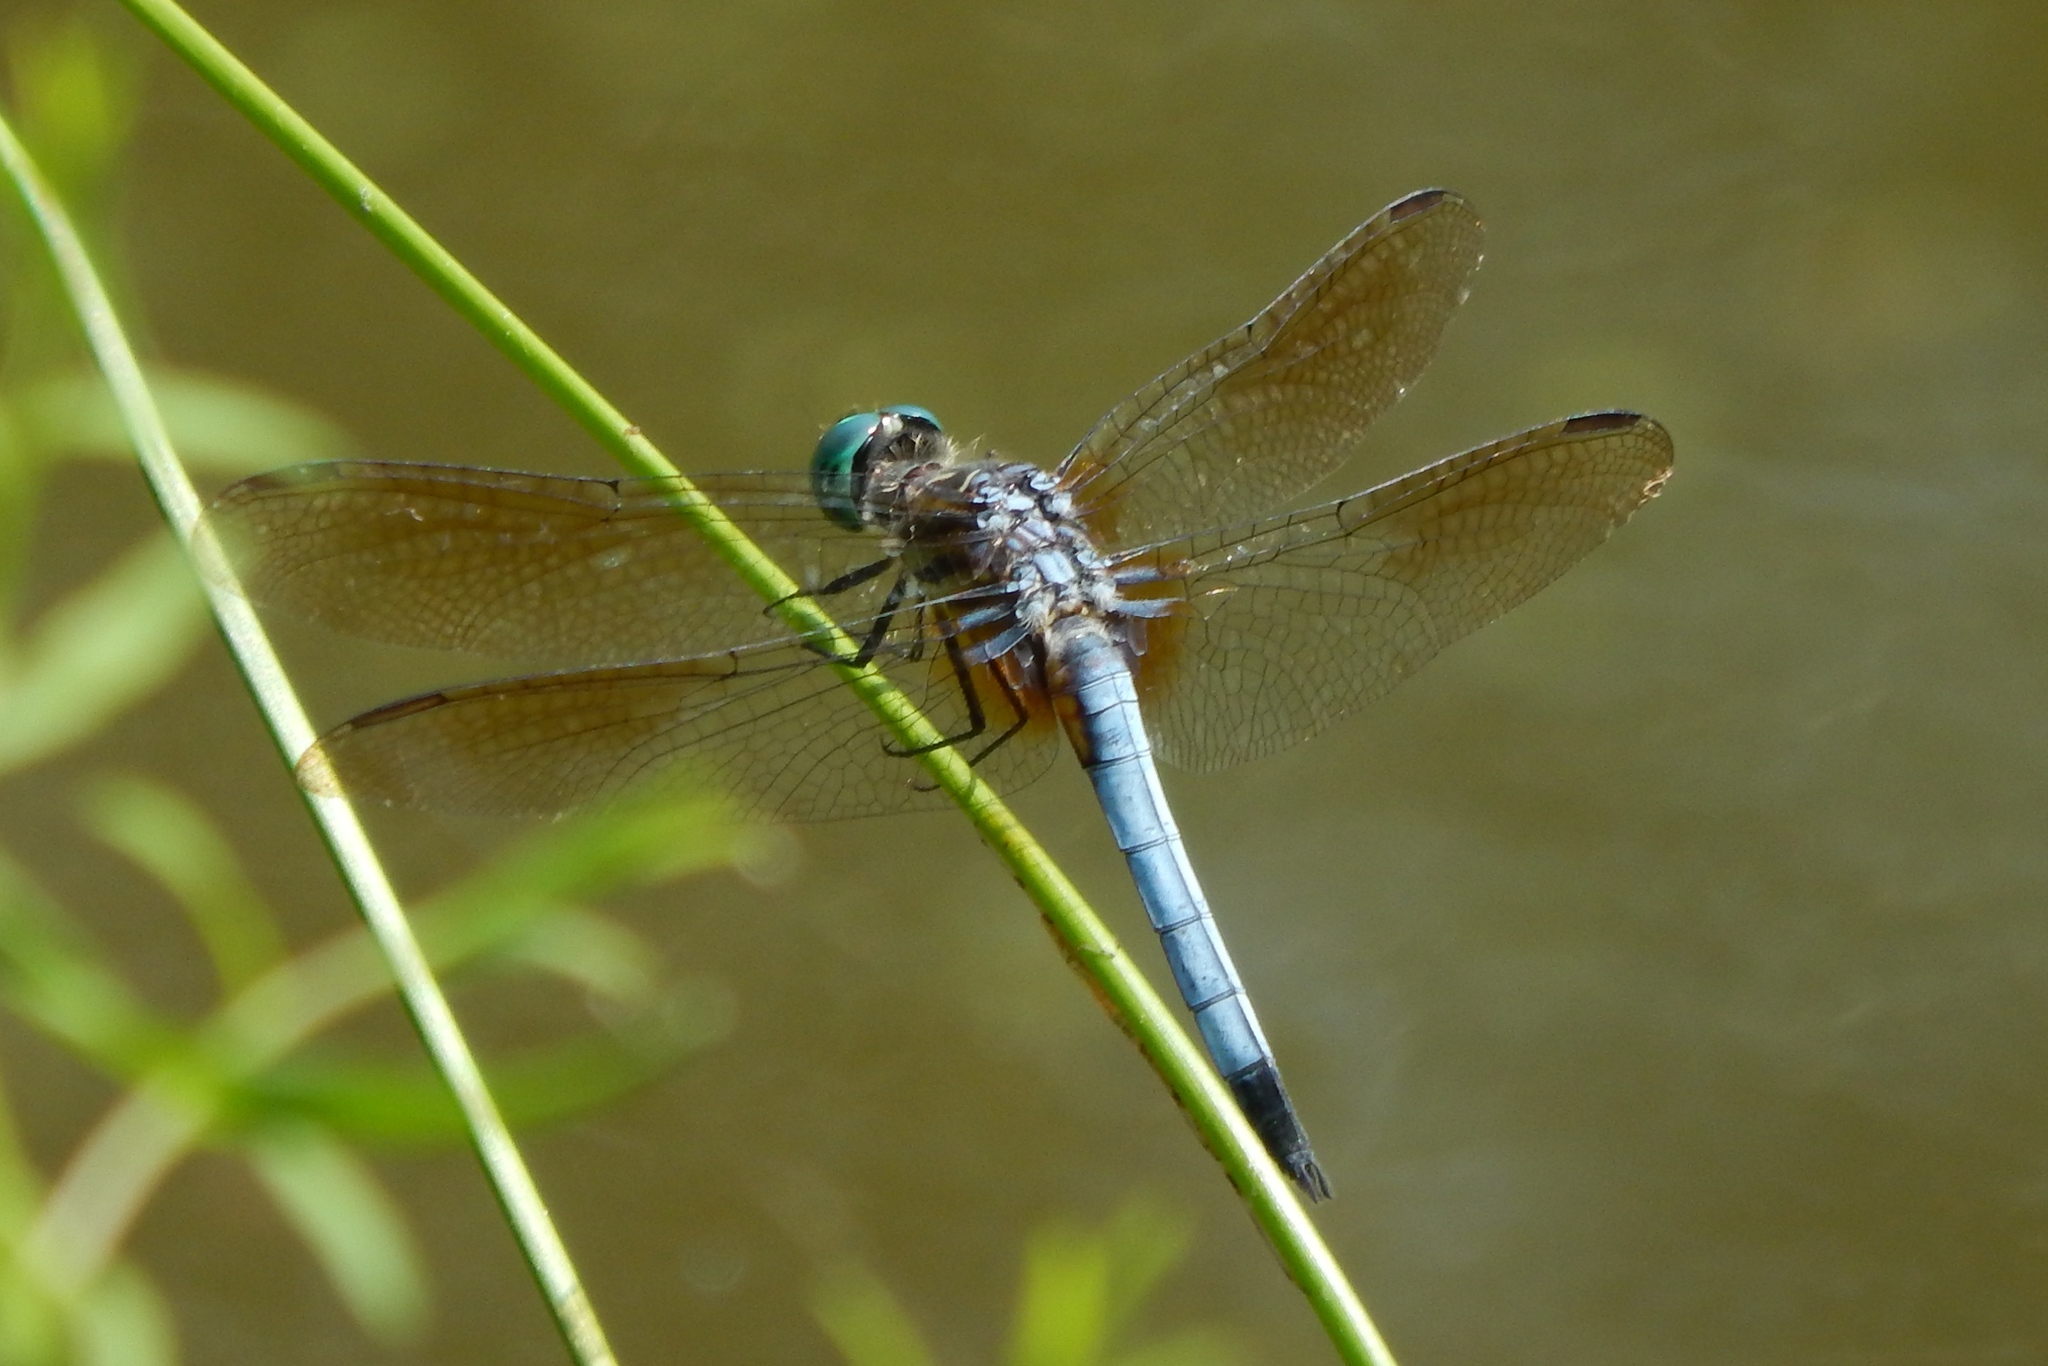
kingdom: Animalia
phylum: Arthropoda
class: Insecta
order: Odonata
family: Libellulidae
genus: Pachydiplax
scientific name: Pachydiplax longipennis
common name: Blue dasher
